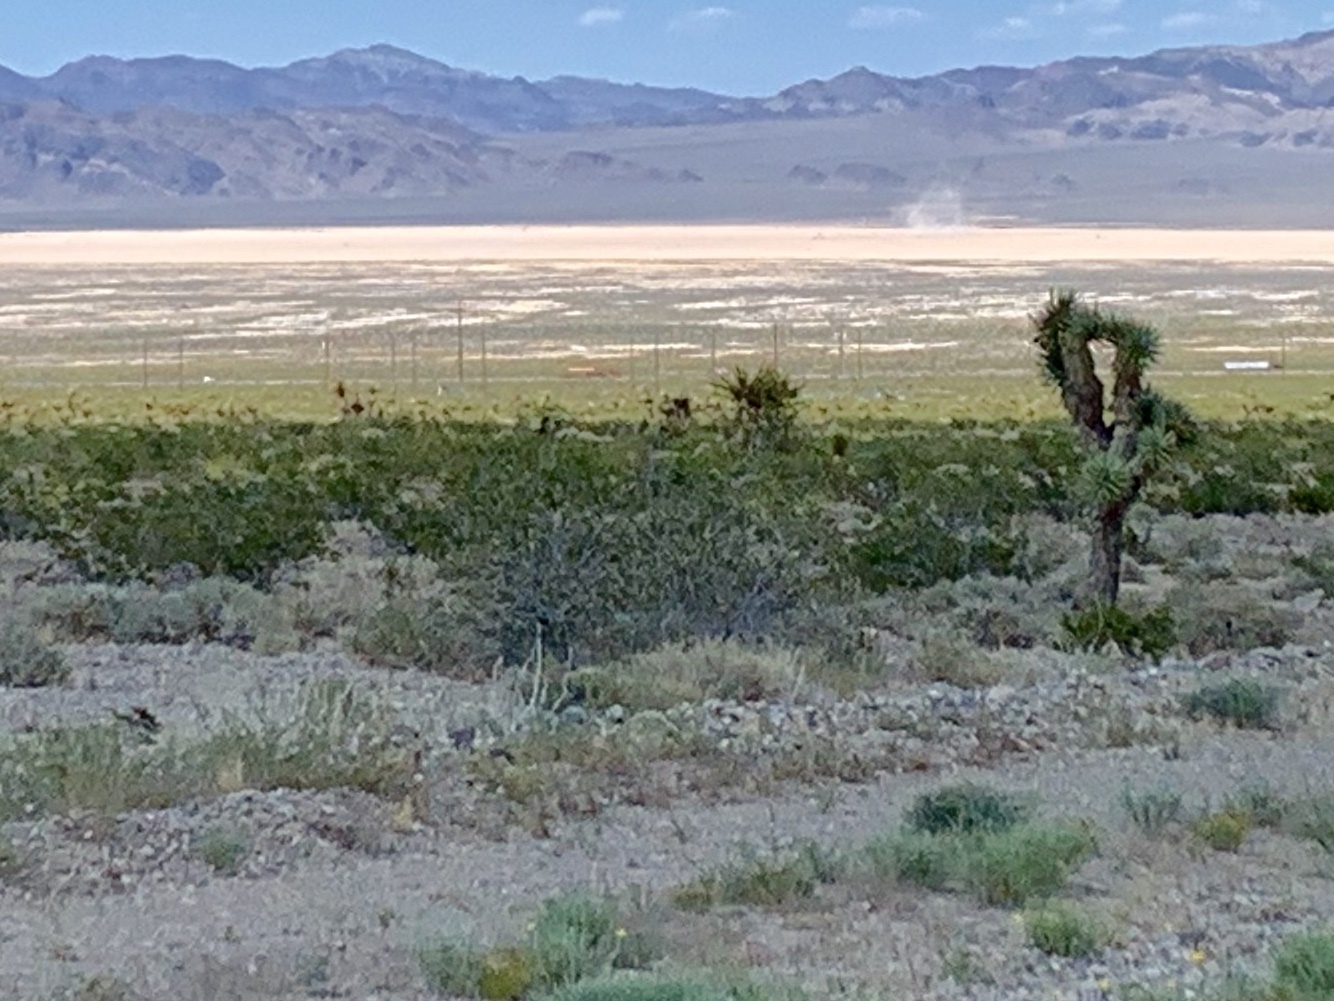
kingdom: Plantae
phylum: Tracheophyta
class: Magnoliopsida
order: Zygophyllales
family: Zygophyllaceae
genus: Larrea
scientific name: Larrea tridentata
